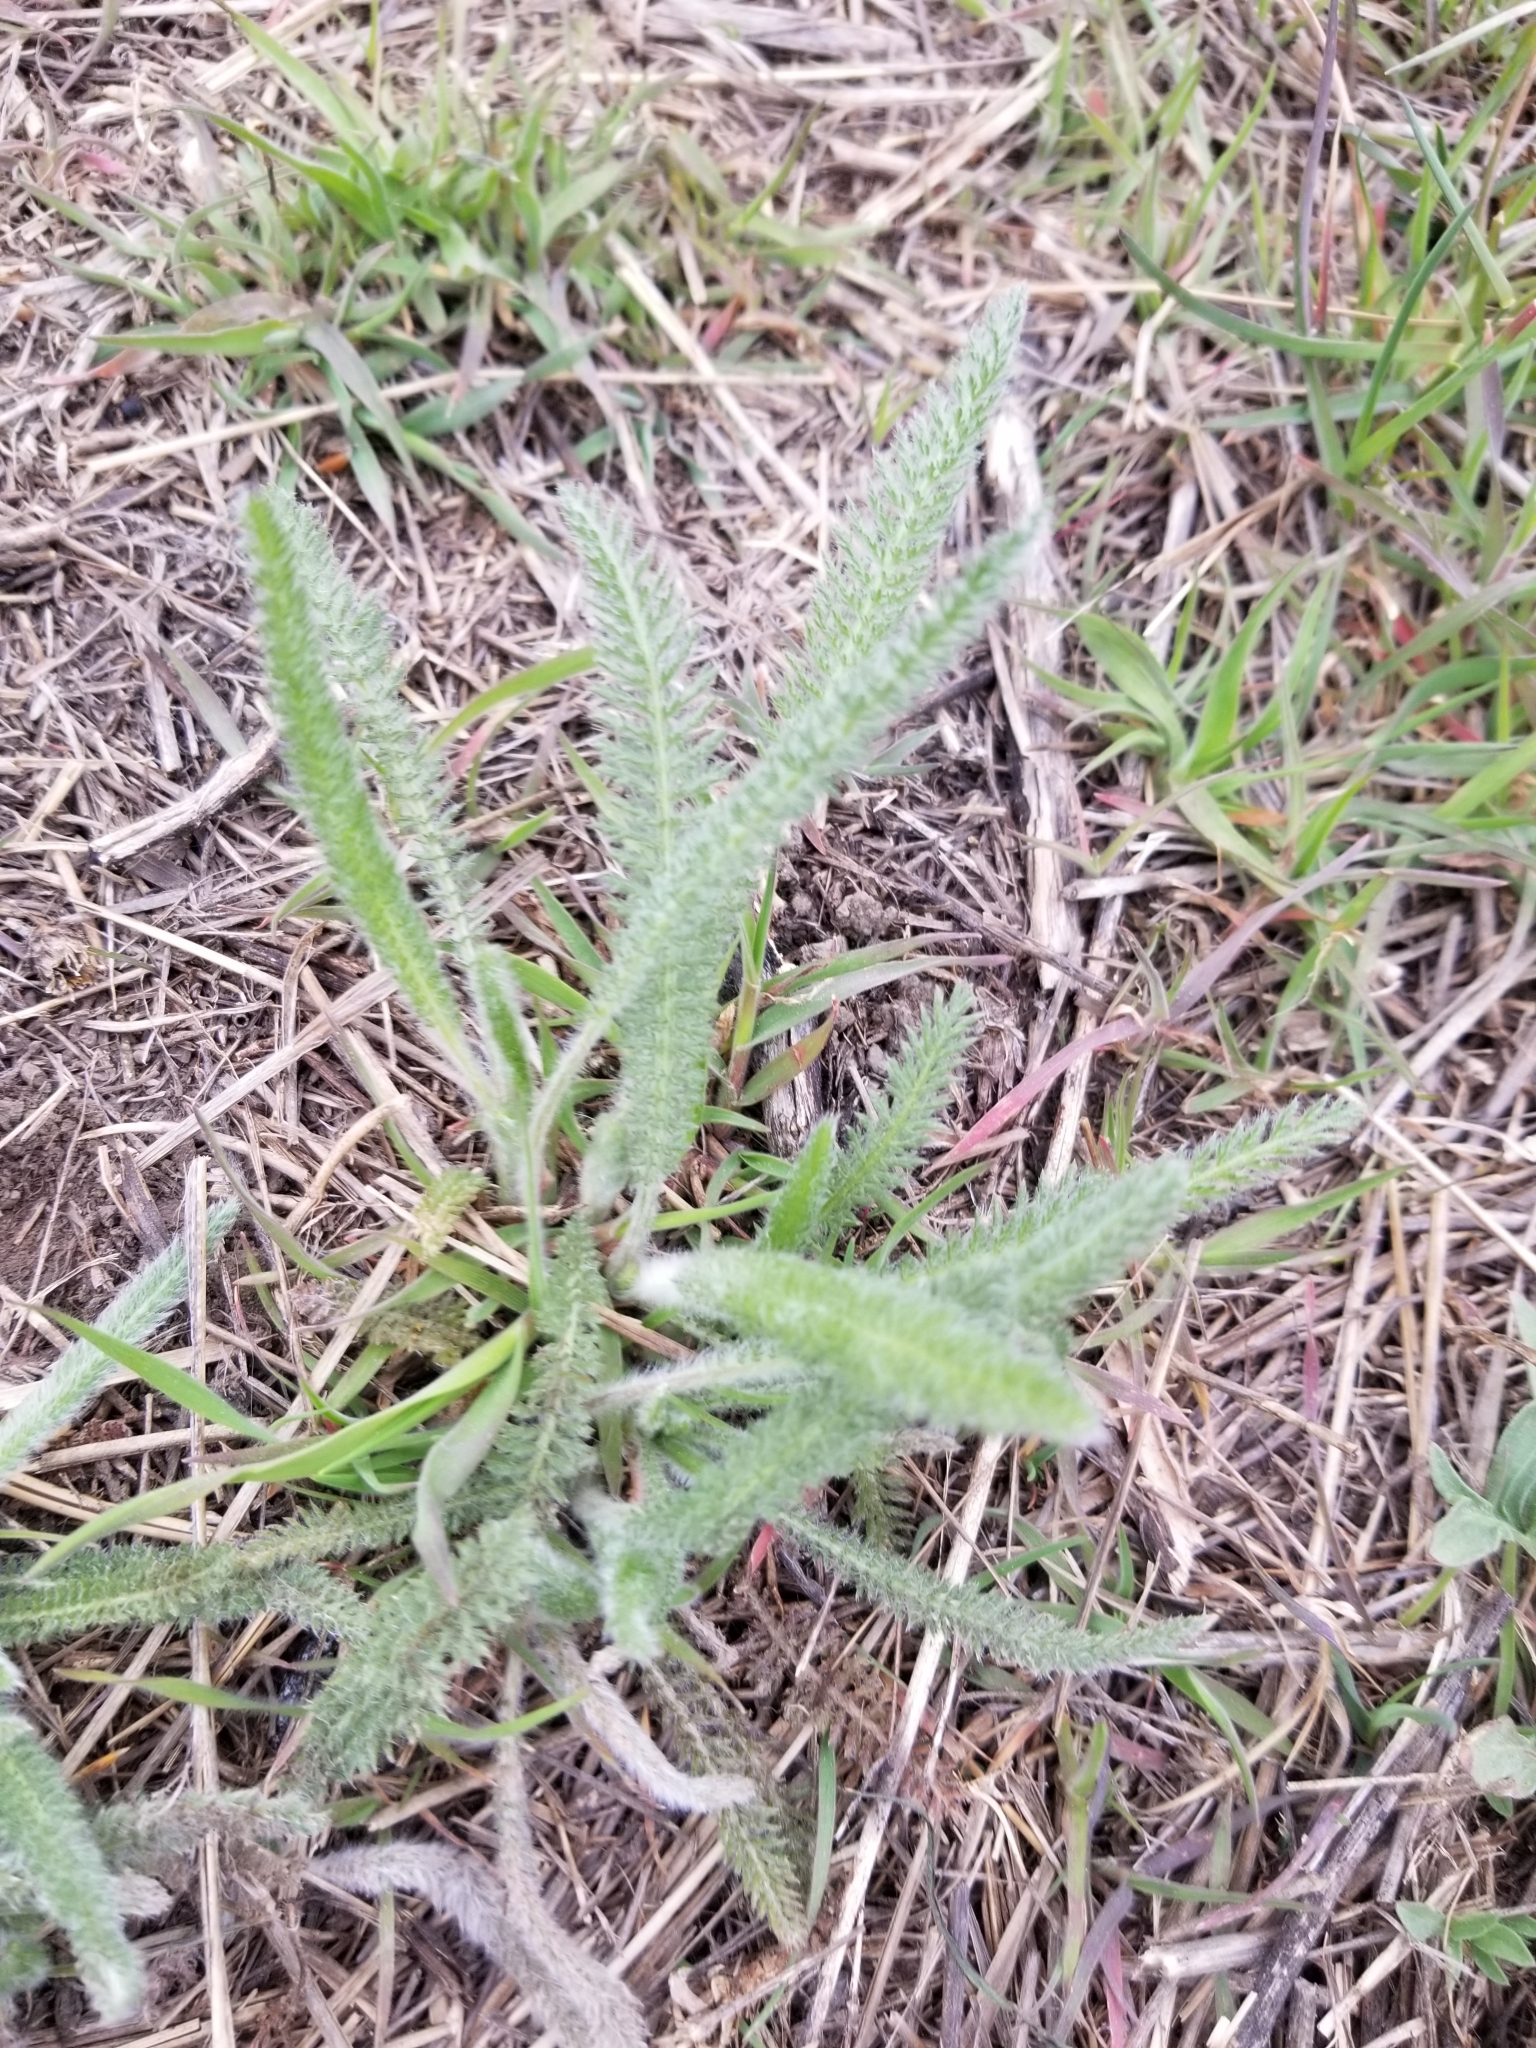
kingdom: Plantae
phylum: Tracheophyta
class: Magnoliopsida
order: Asterales
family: Asteraceae
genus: Achillea
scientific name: Achillea millefolium
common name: Yarrow
